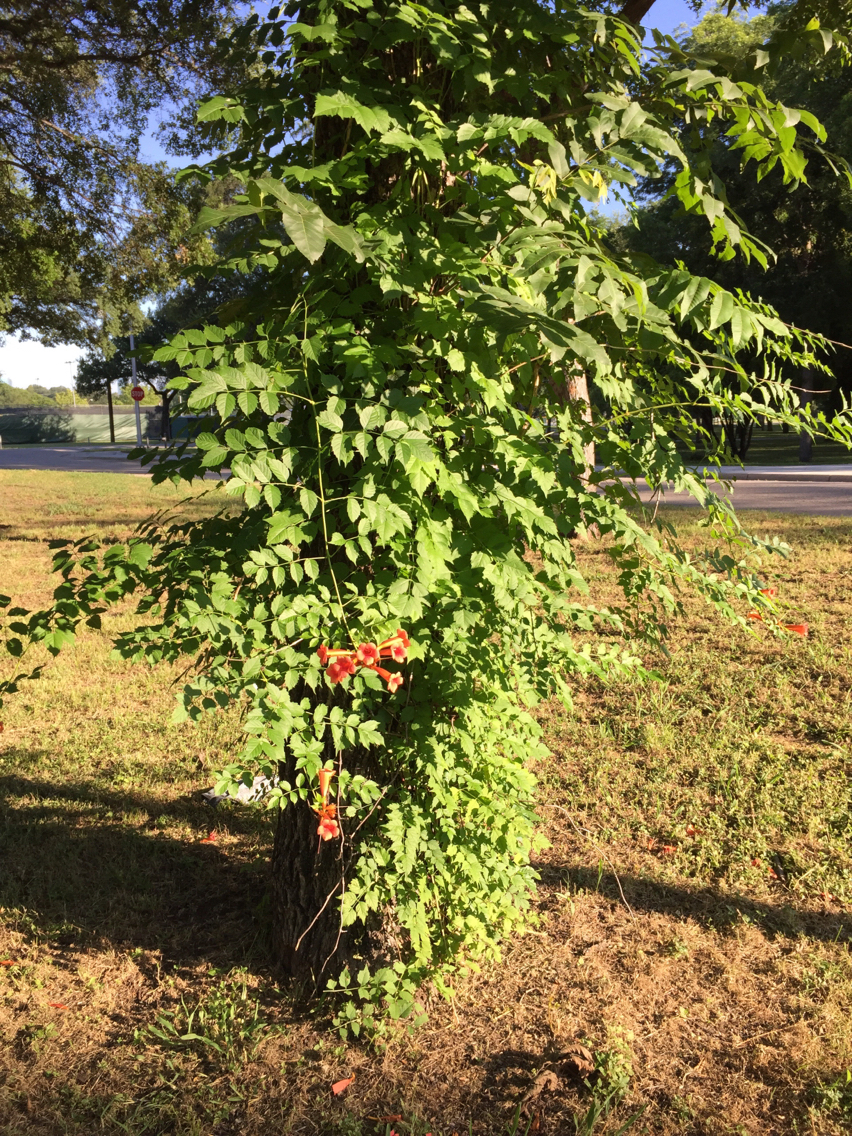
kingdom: Plantae
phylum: Tracheophyta
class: Magnoliopsida
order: Lamiales
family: Bignoniaceae
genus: Campsis
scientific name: Campsis radicans
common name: Trumpet-creeper
